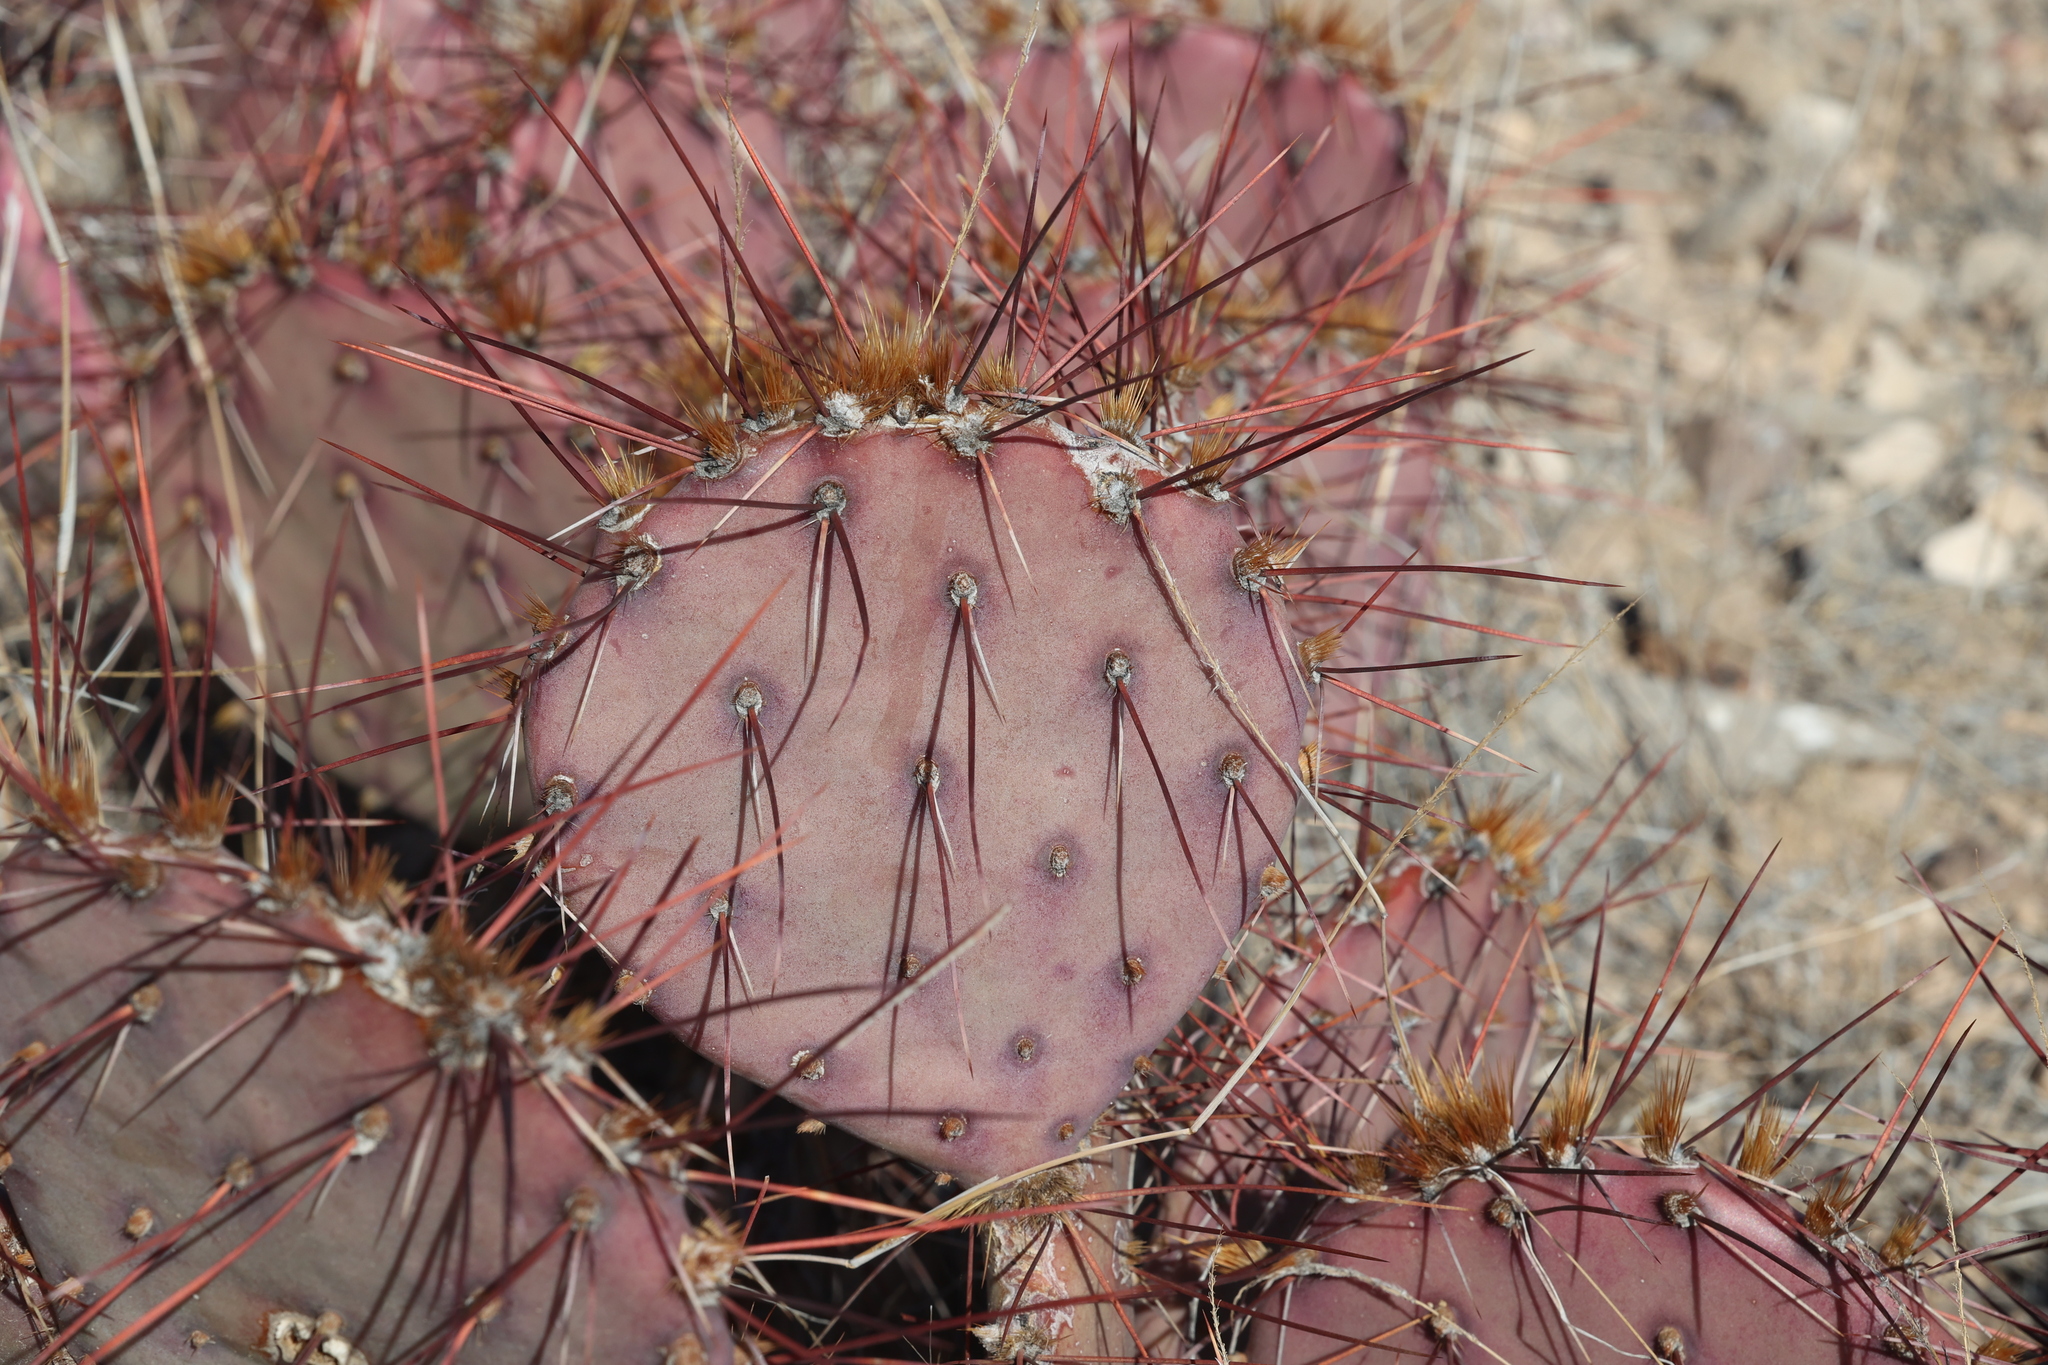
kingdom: Plantae
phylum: Tracheophyta
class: Magnoliopsida
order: Caryophyllales
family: Cactaceae
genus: Opuntia
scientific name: Opuntia macrocentra
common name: Purple prickly-pear
